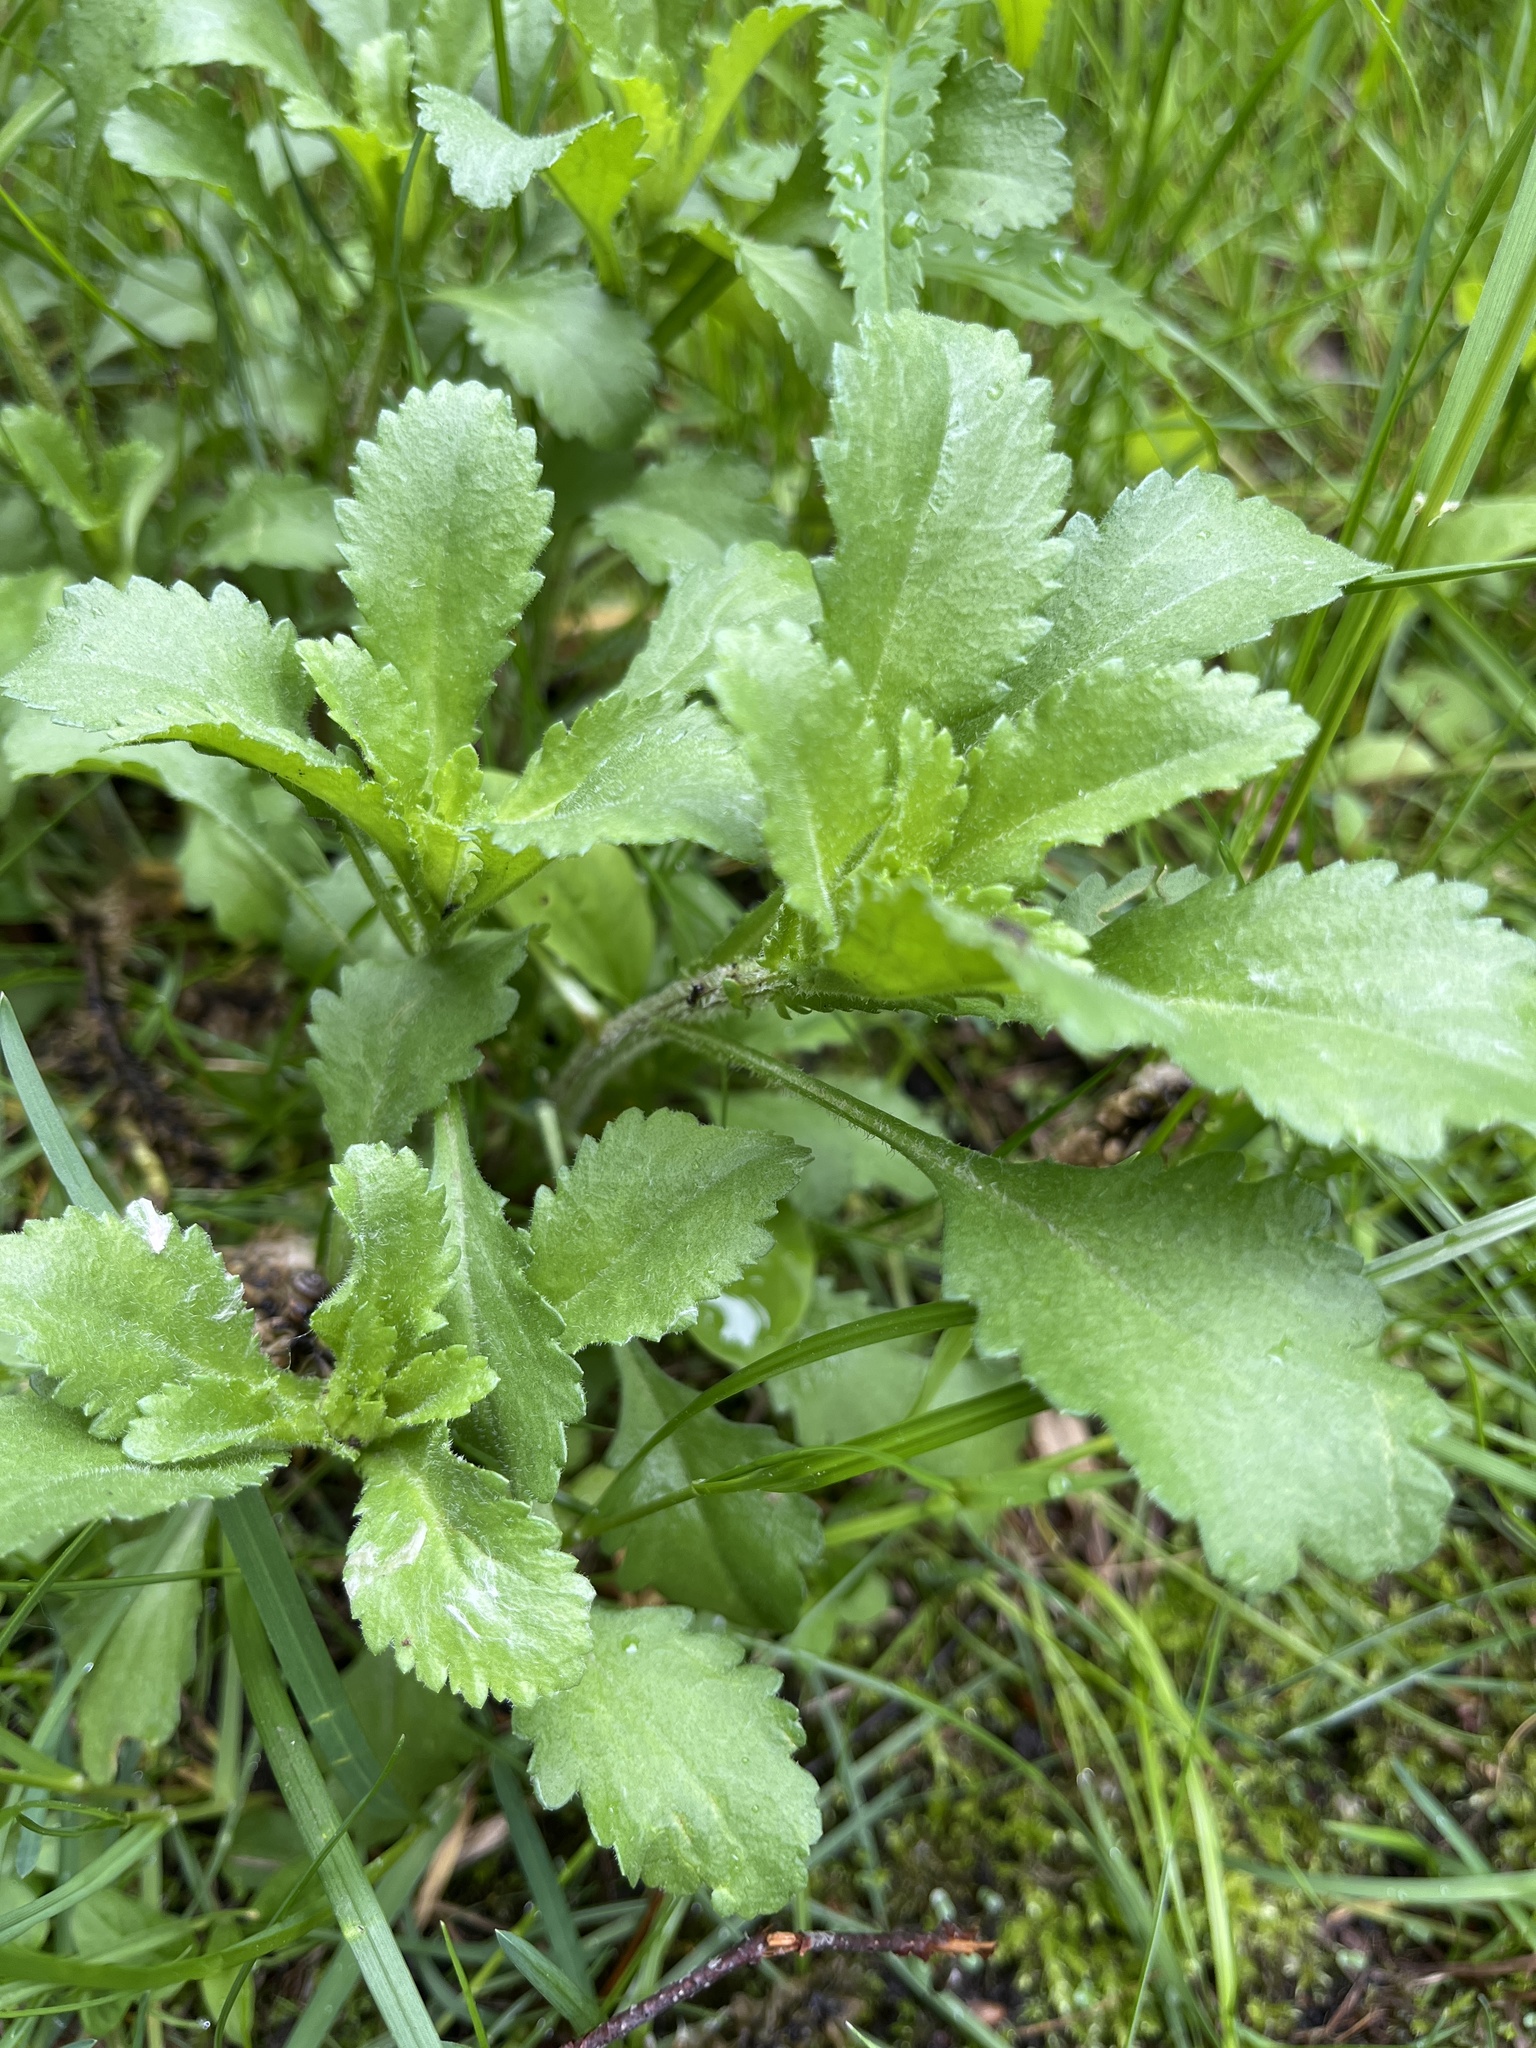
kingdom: Plantae
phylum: Tracheophyta
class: Magnoliopsida
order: Asterales
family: Asteraceae
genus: Leucanthemum
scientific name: Leucanthemum vulgare
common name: Oxeye daisy
